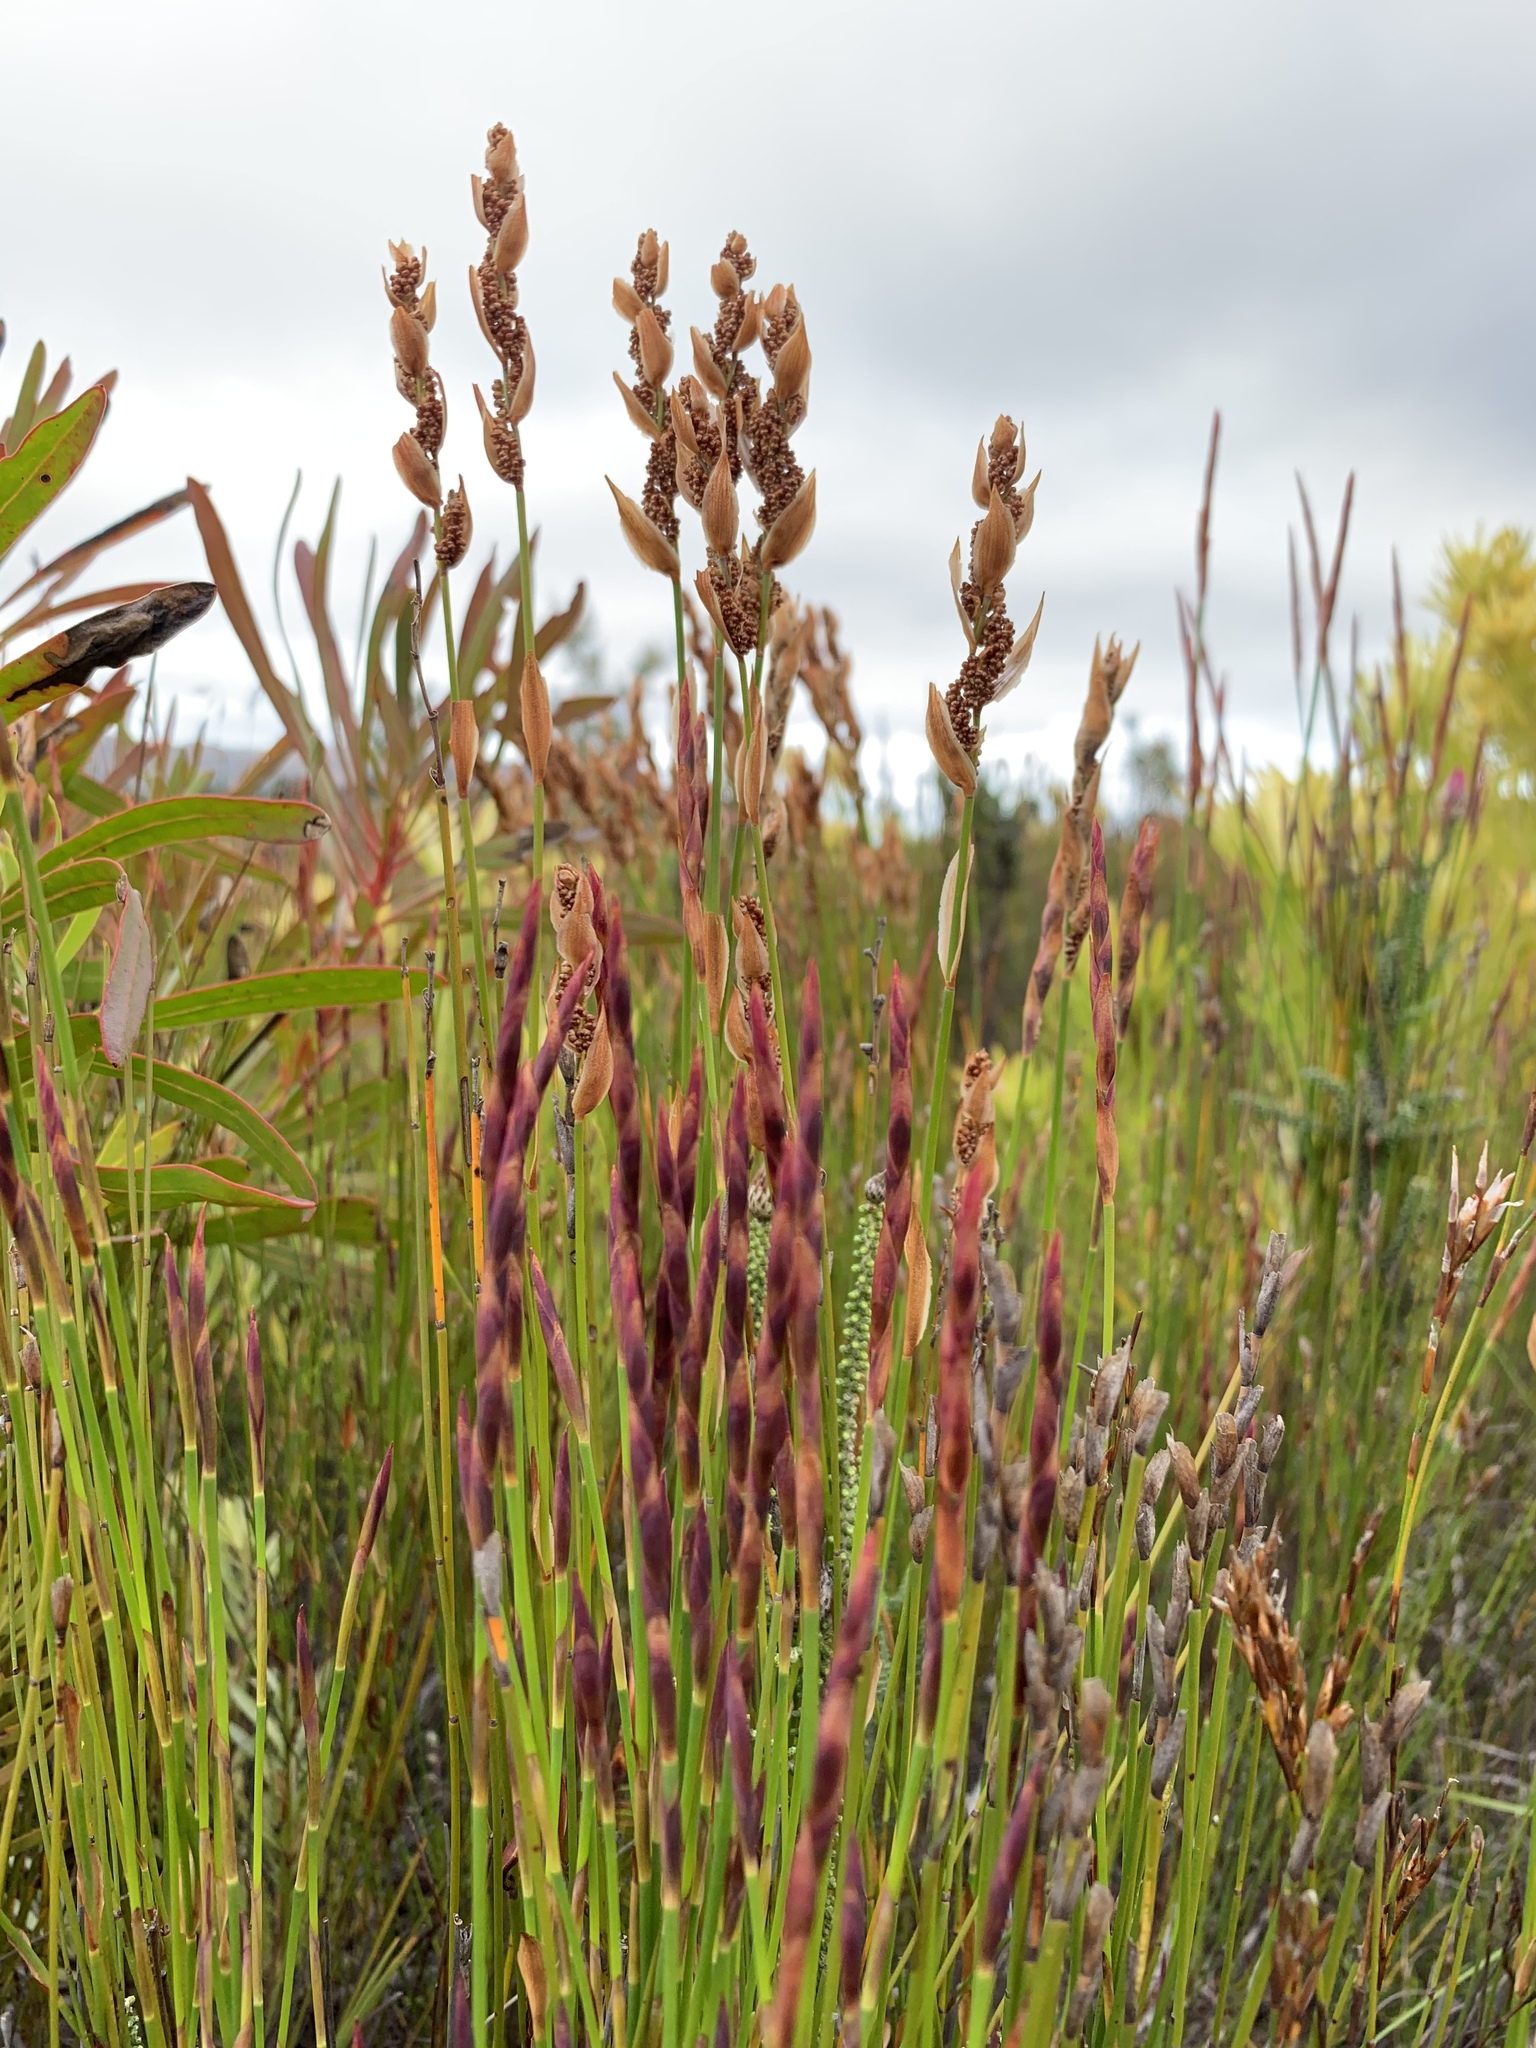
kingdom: Plantae
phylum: Tracheophyta
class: Liliopsida
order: Poales
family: Restionaceae
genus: Elegia
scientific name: Elegia filacea
